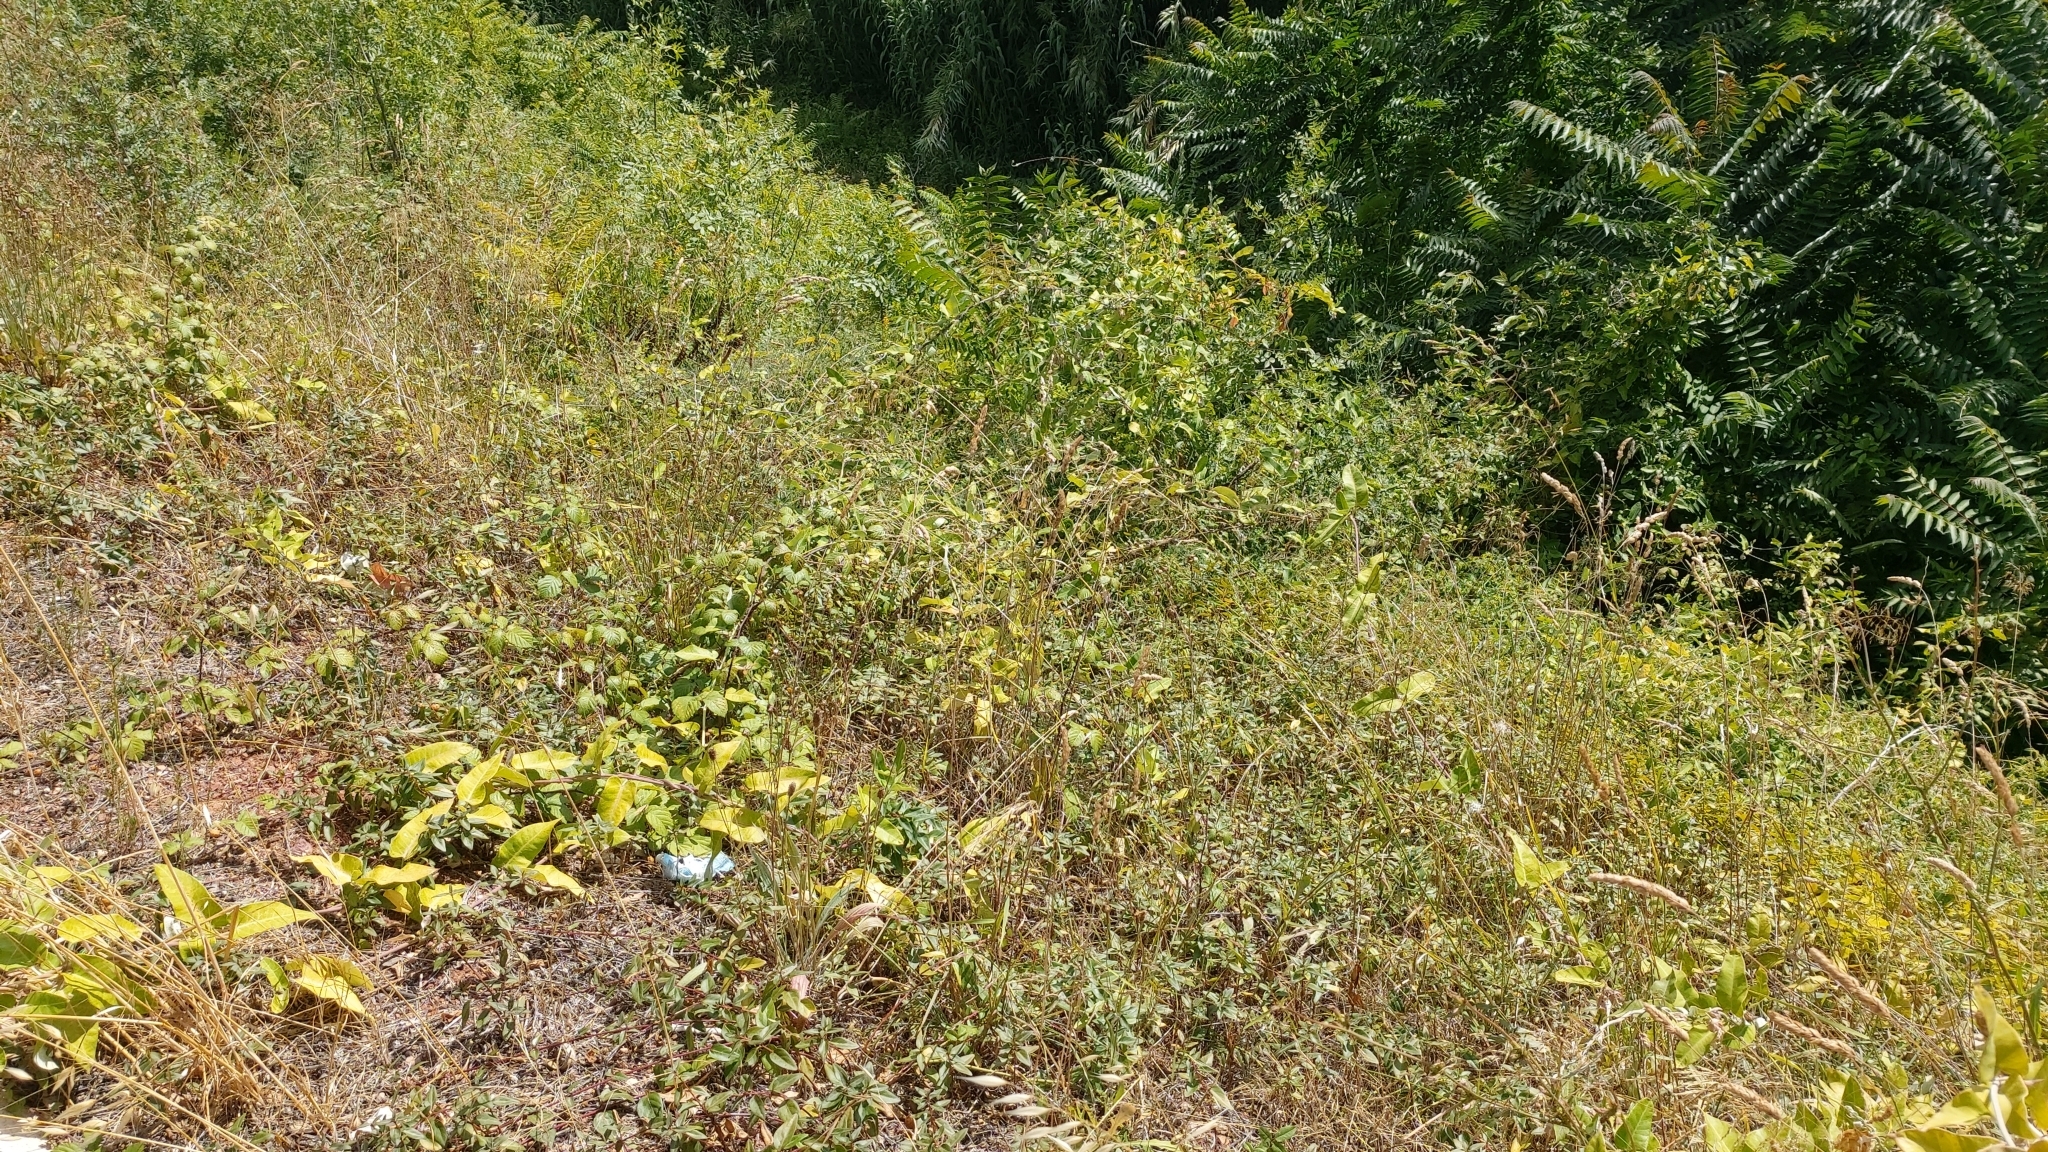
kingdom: Plantae
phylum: Tracheophyta
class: Magnoliopsida
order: Gentianales
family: Apocynaceae
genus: Araujia
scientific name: Araujia sericifera
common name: White bladderflower
